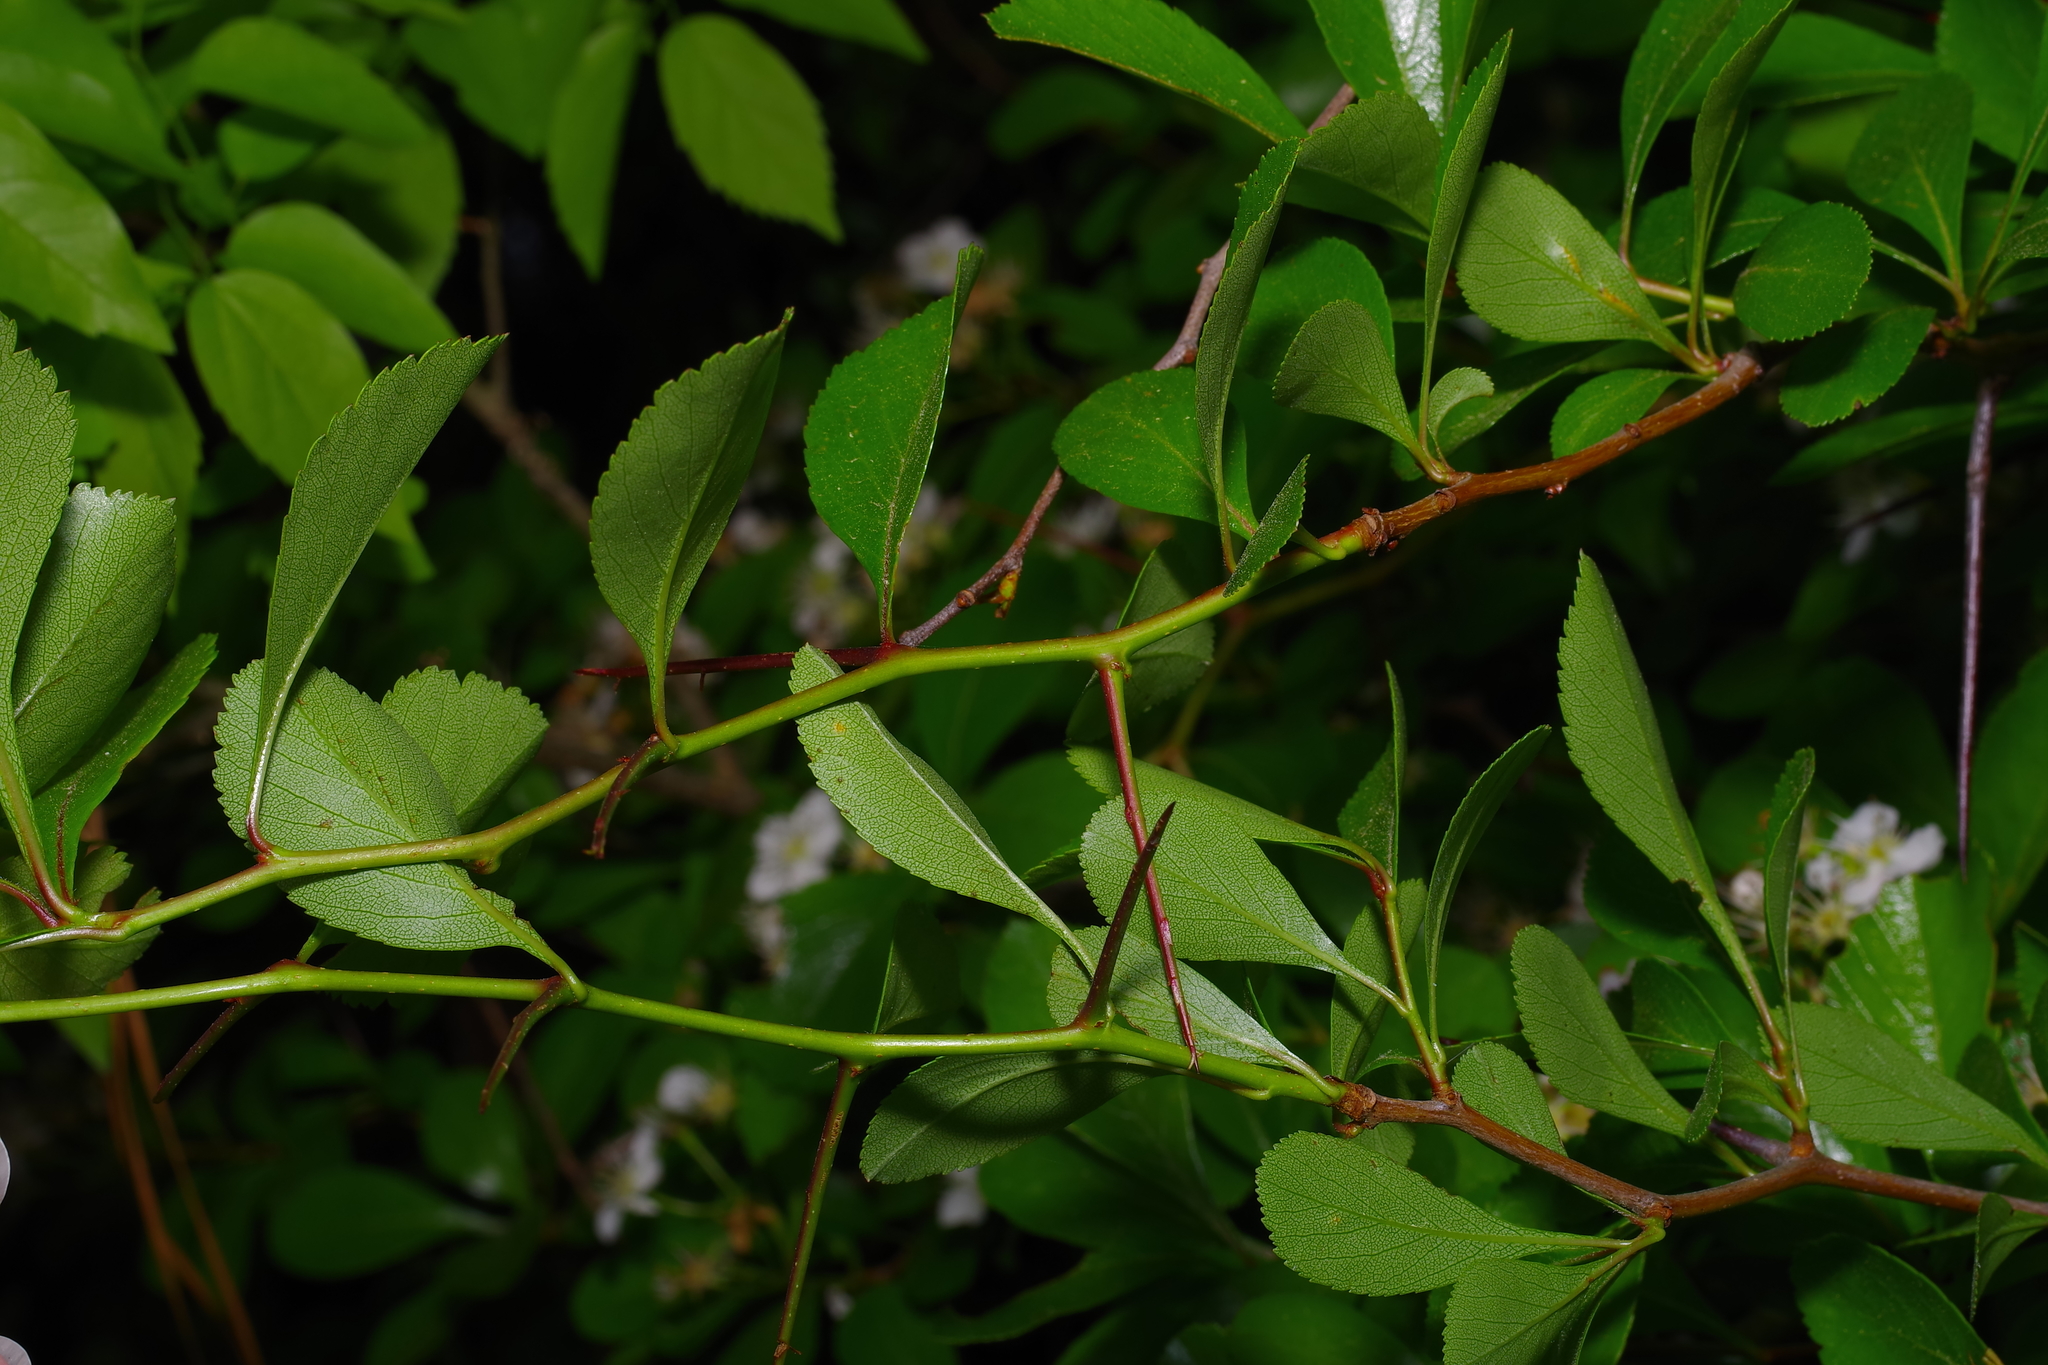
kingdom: Plantae
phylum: Tracheophyta
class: Magnoliopsida
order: Rosales
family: Rosaceae
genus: Crataegus
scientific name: Crataegus crus-galli
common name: Cockspurthorn
